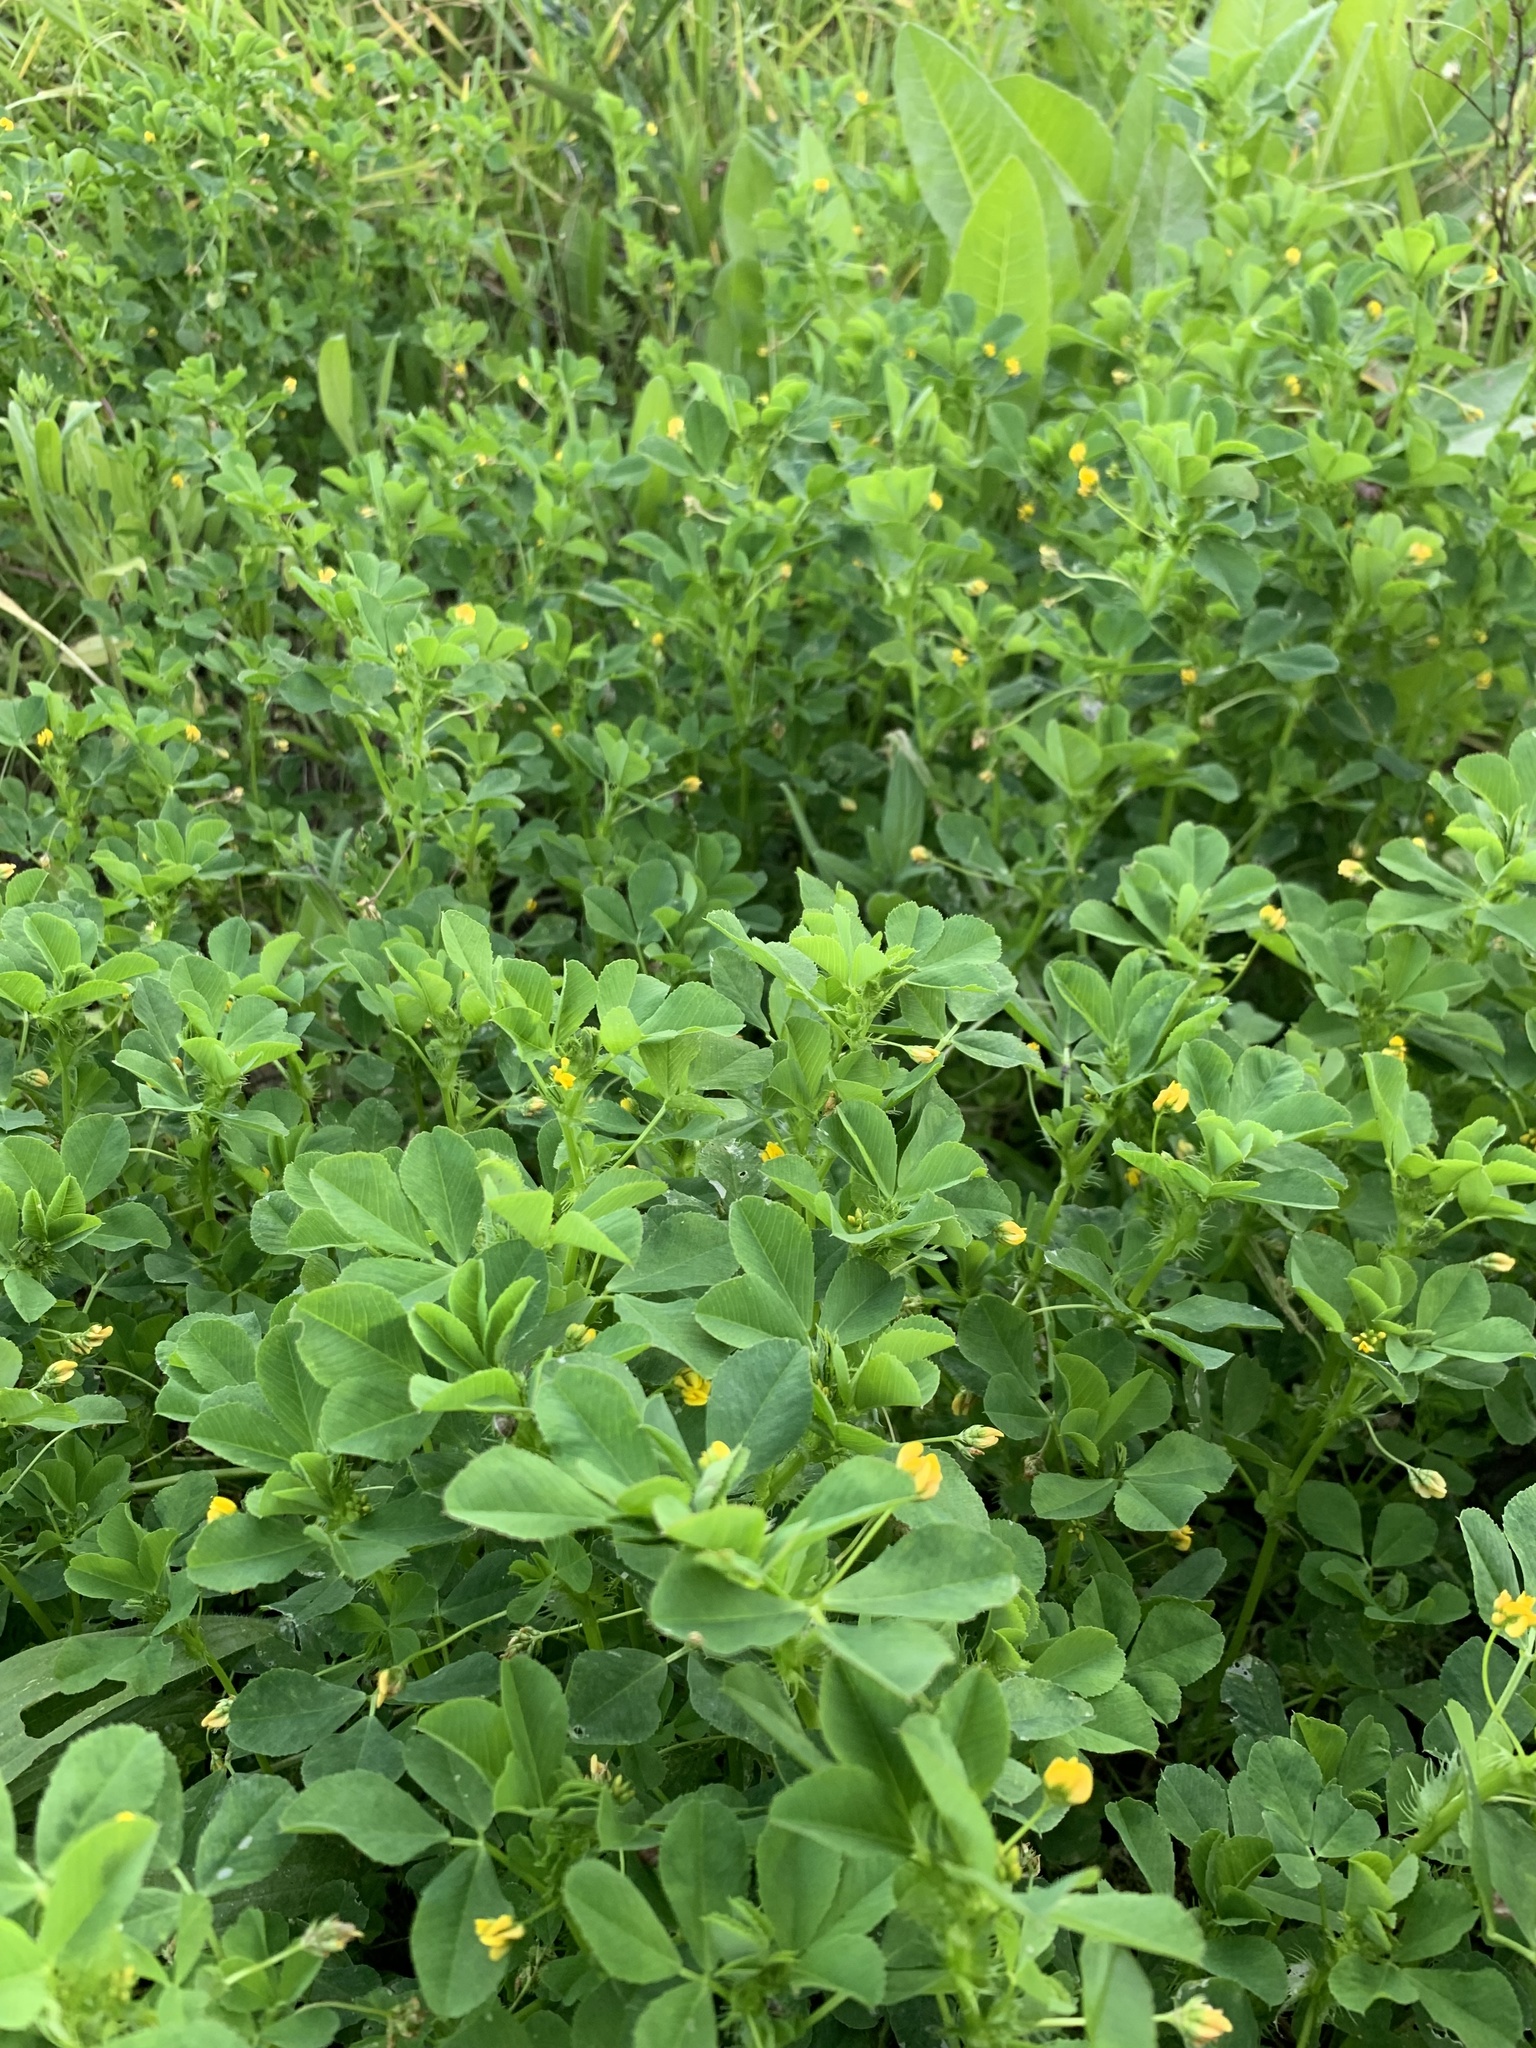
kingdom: Plantae
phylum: Tracheophyta
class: Magnoliopsida
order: Fabales
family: Fabaceae
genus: Medicago
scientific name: Medicago polymorpha
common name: Burclover
